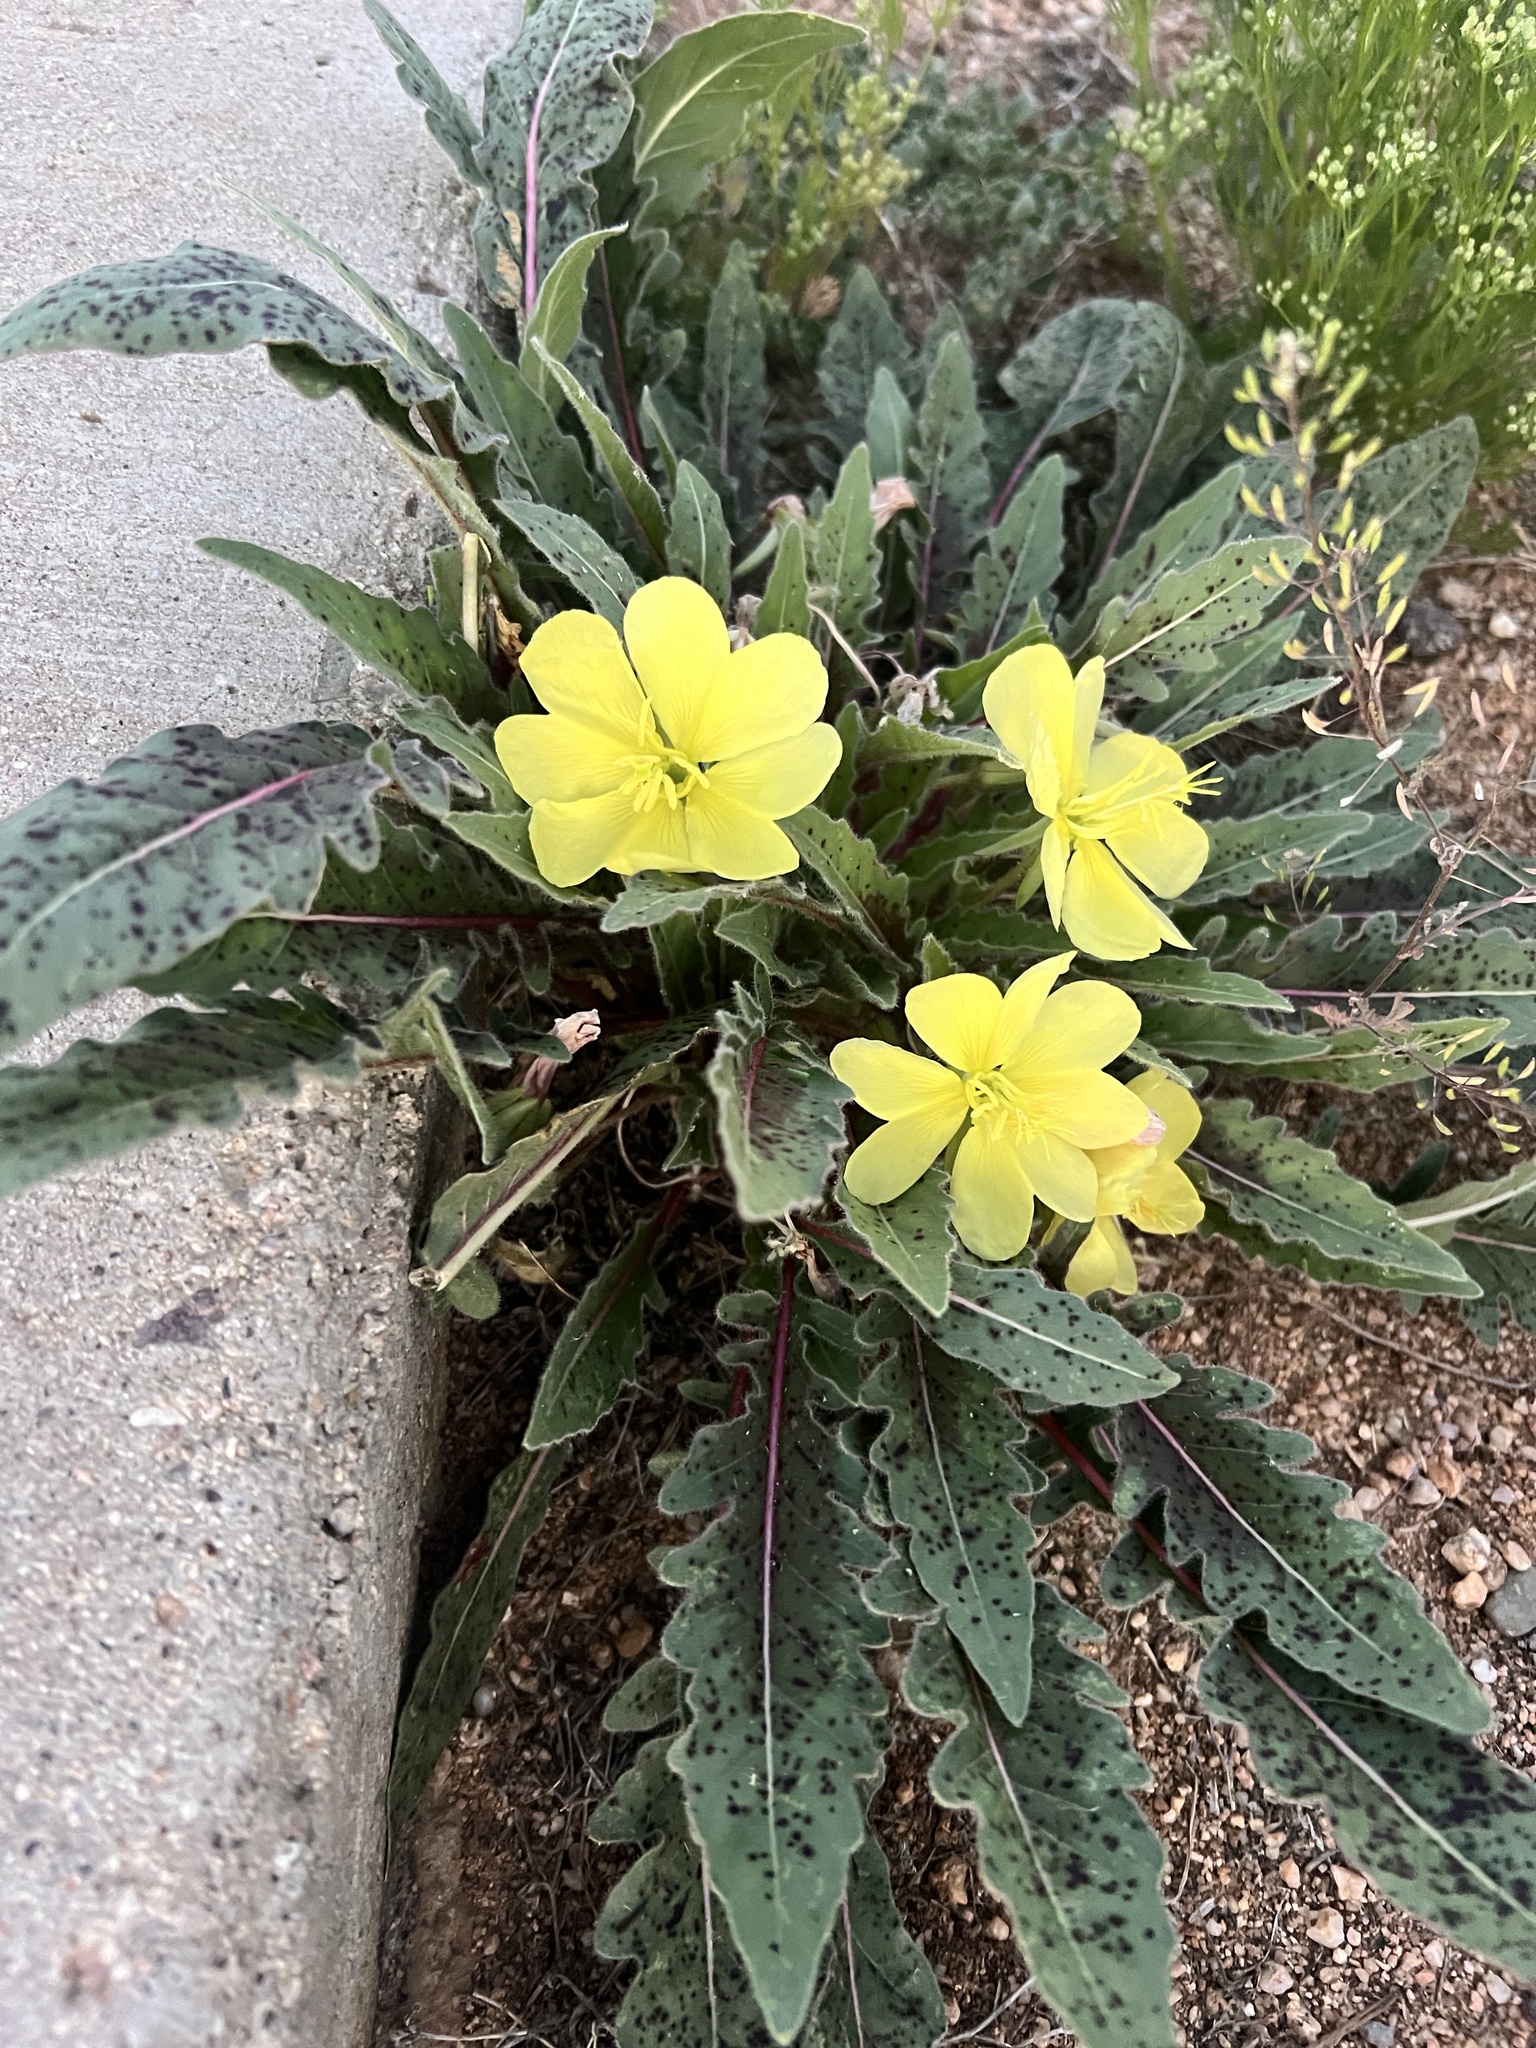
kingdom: Plantae
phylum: Tracheophyta
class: Magnoliopsida
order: Myrtales
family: Onagraceae
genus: Oenothera
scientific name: Oenothera primiveris
